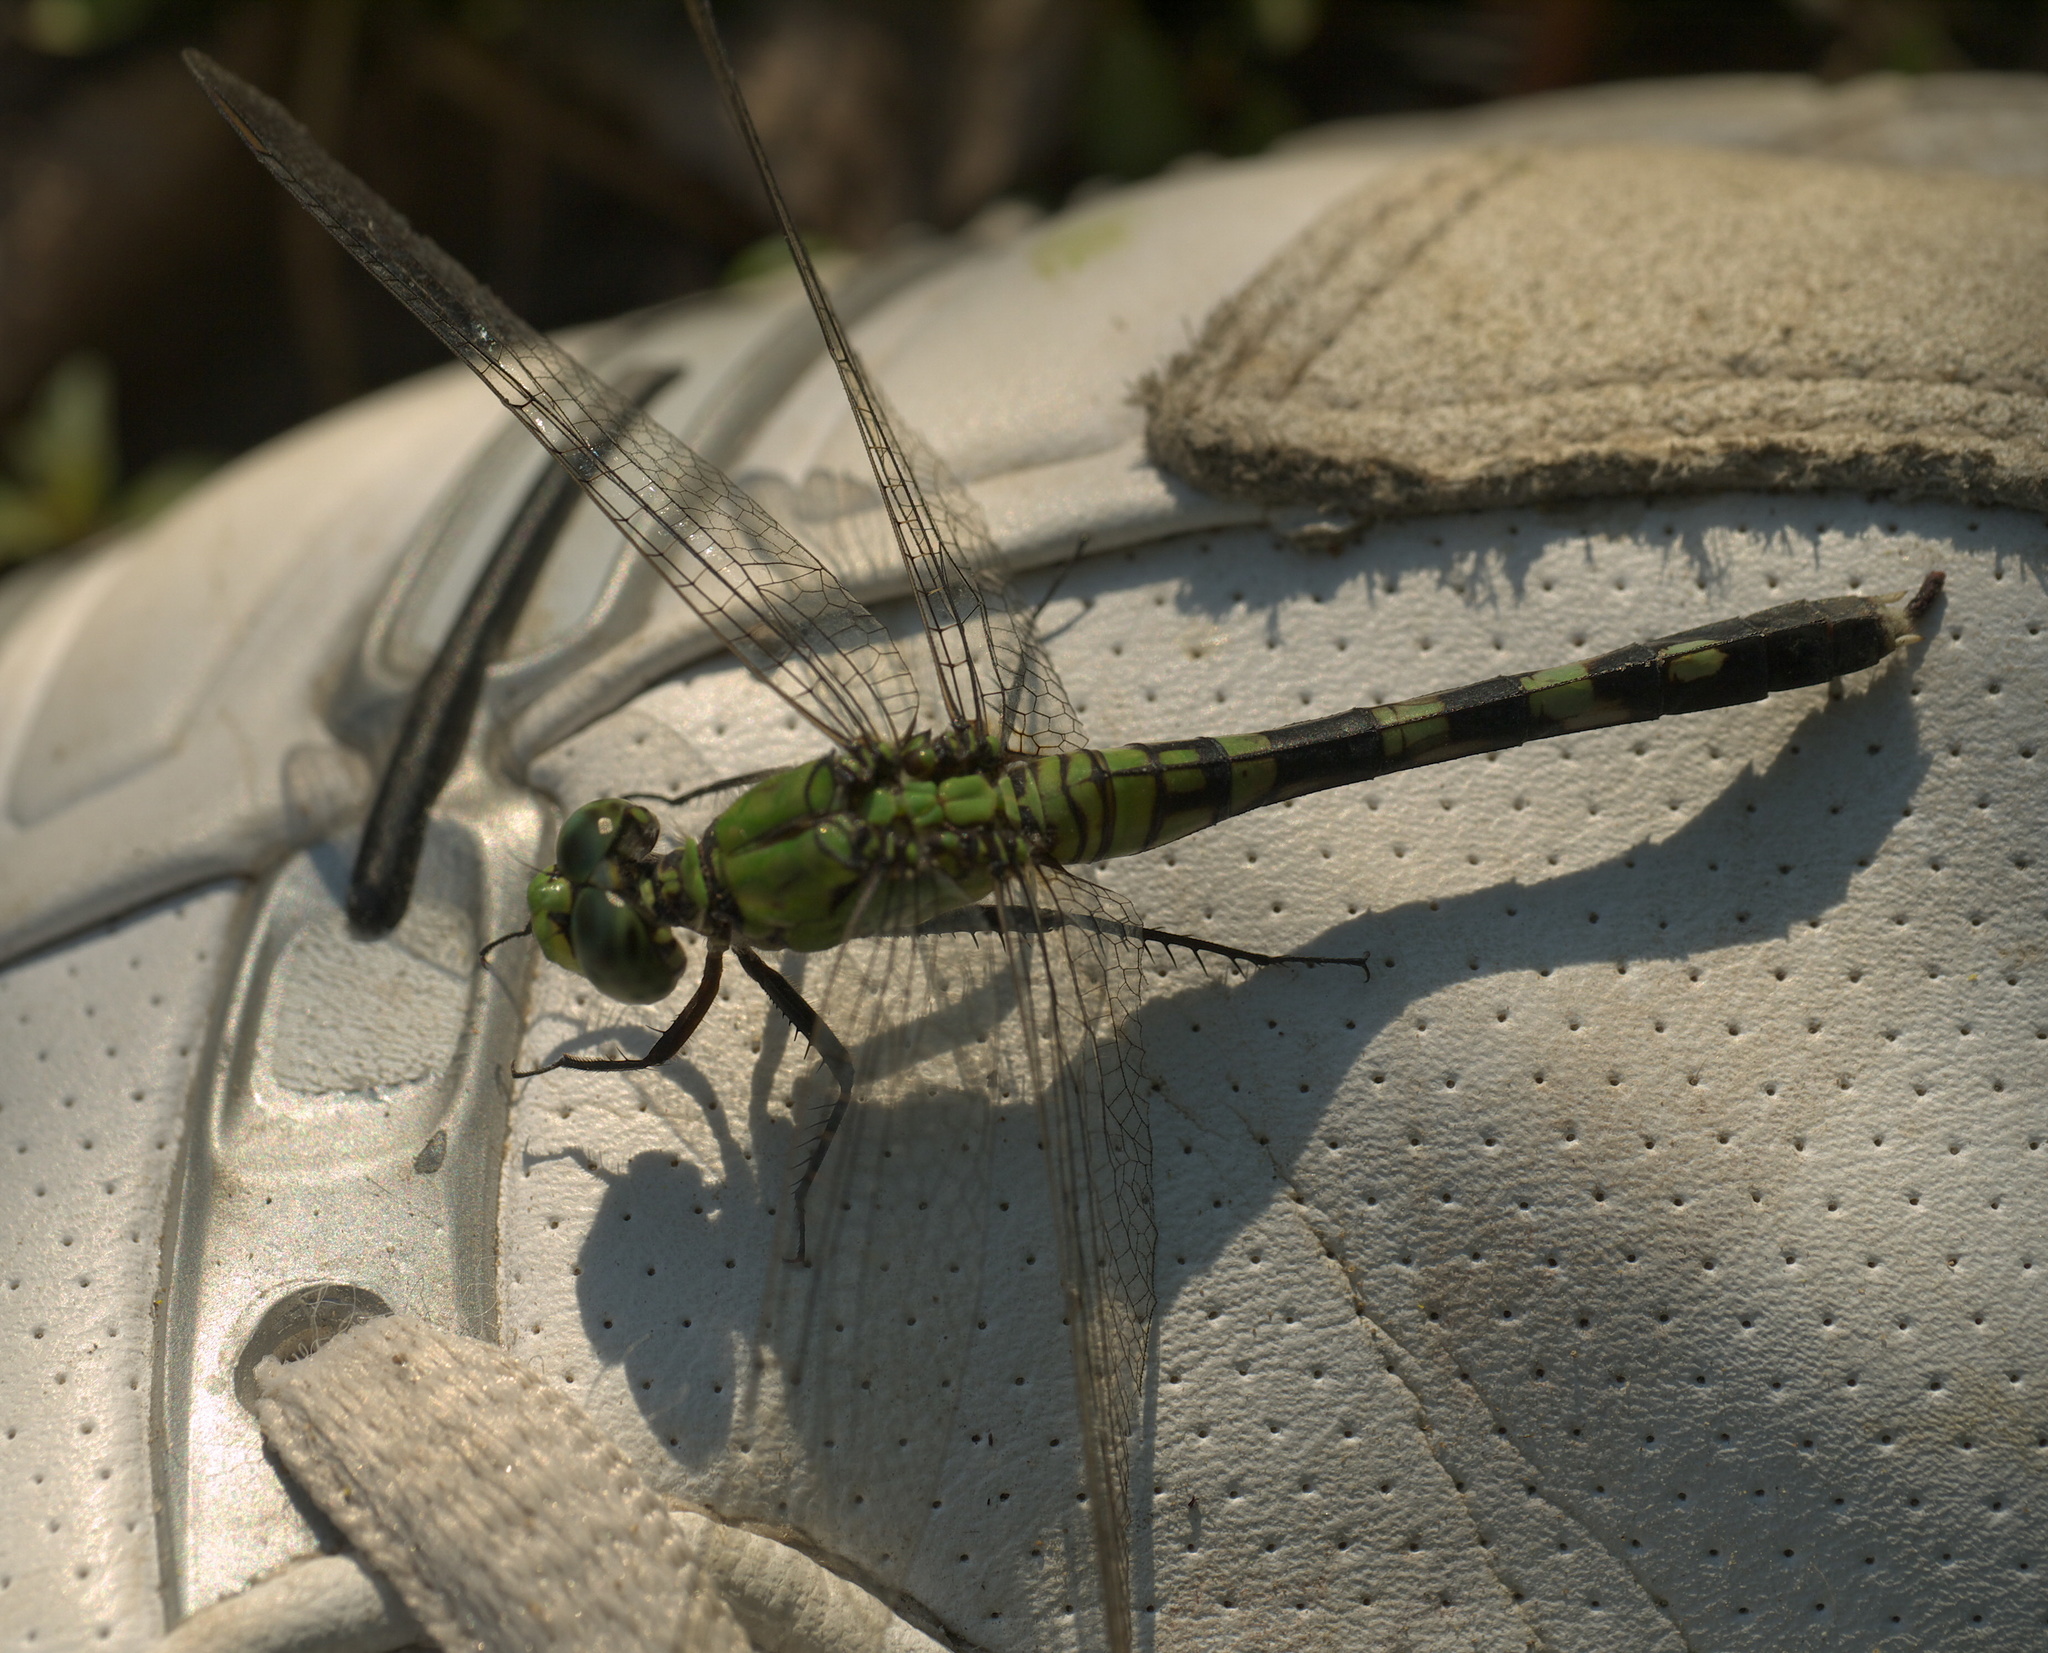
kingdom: Animalia
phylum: Arthropoda
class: Insecta
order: Odonata
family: Libellulidae
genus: Erythemis
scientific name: Erythemis simplicicollis
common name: Eastern pondhawk
